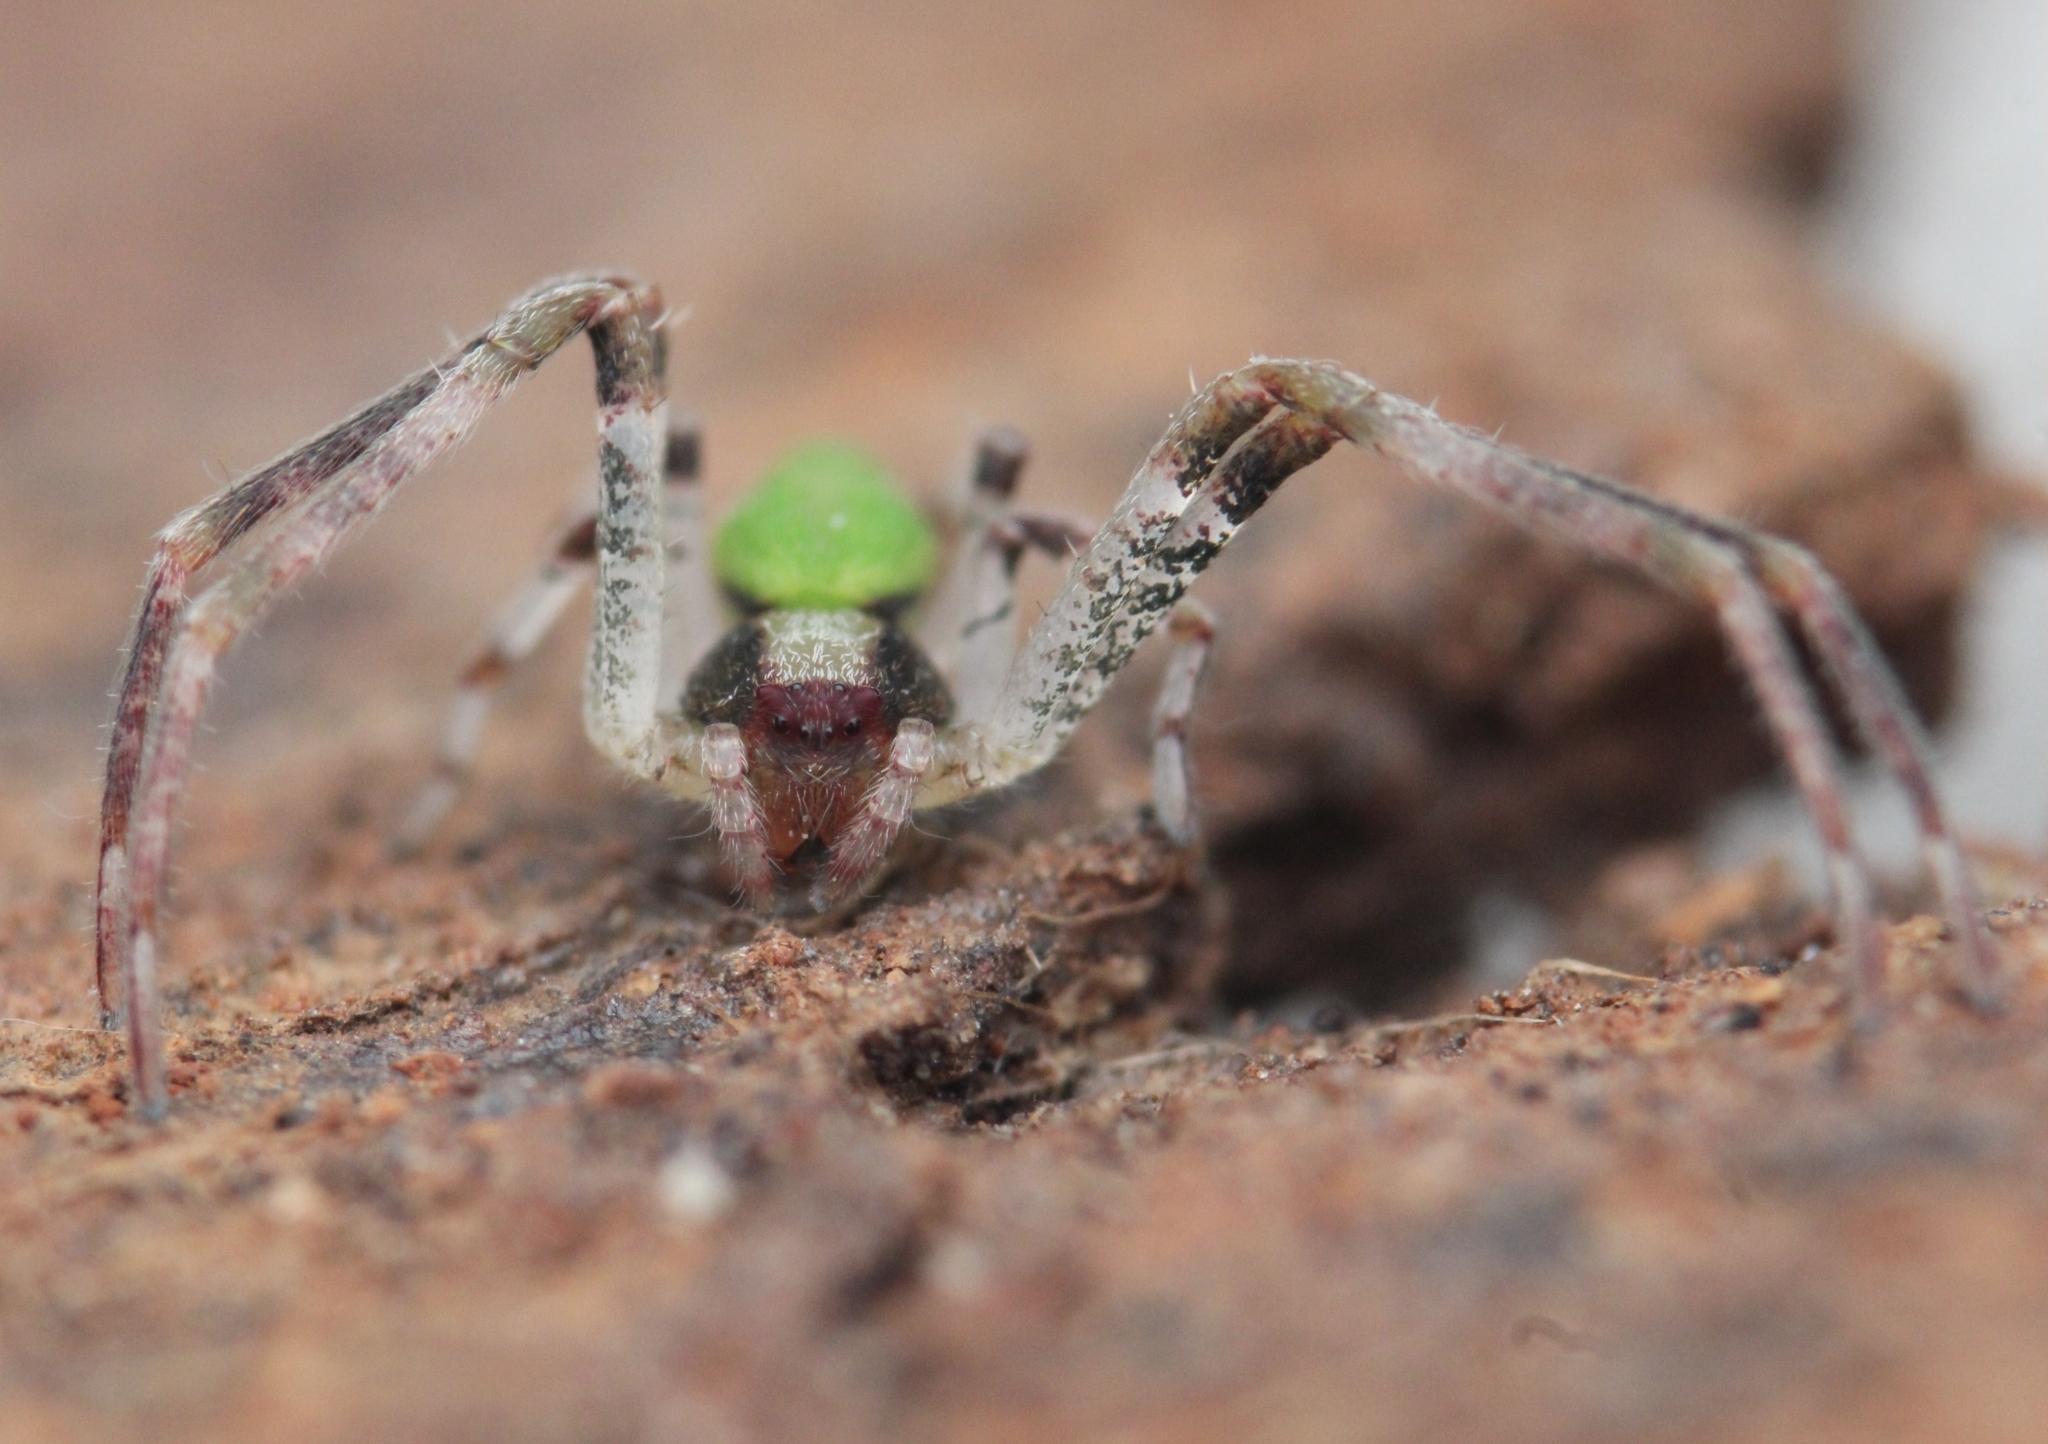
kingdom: Animalia
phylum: Arthropoda
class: Arachnida
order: Araneae
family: Thomisidae
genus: Geraesta
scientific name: Geraesta congoensis
